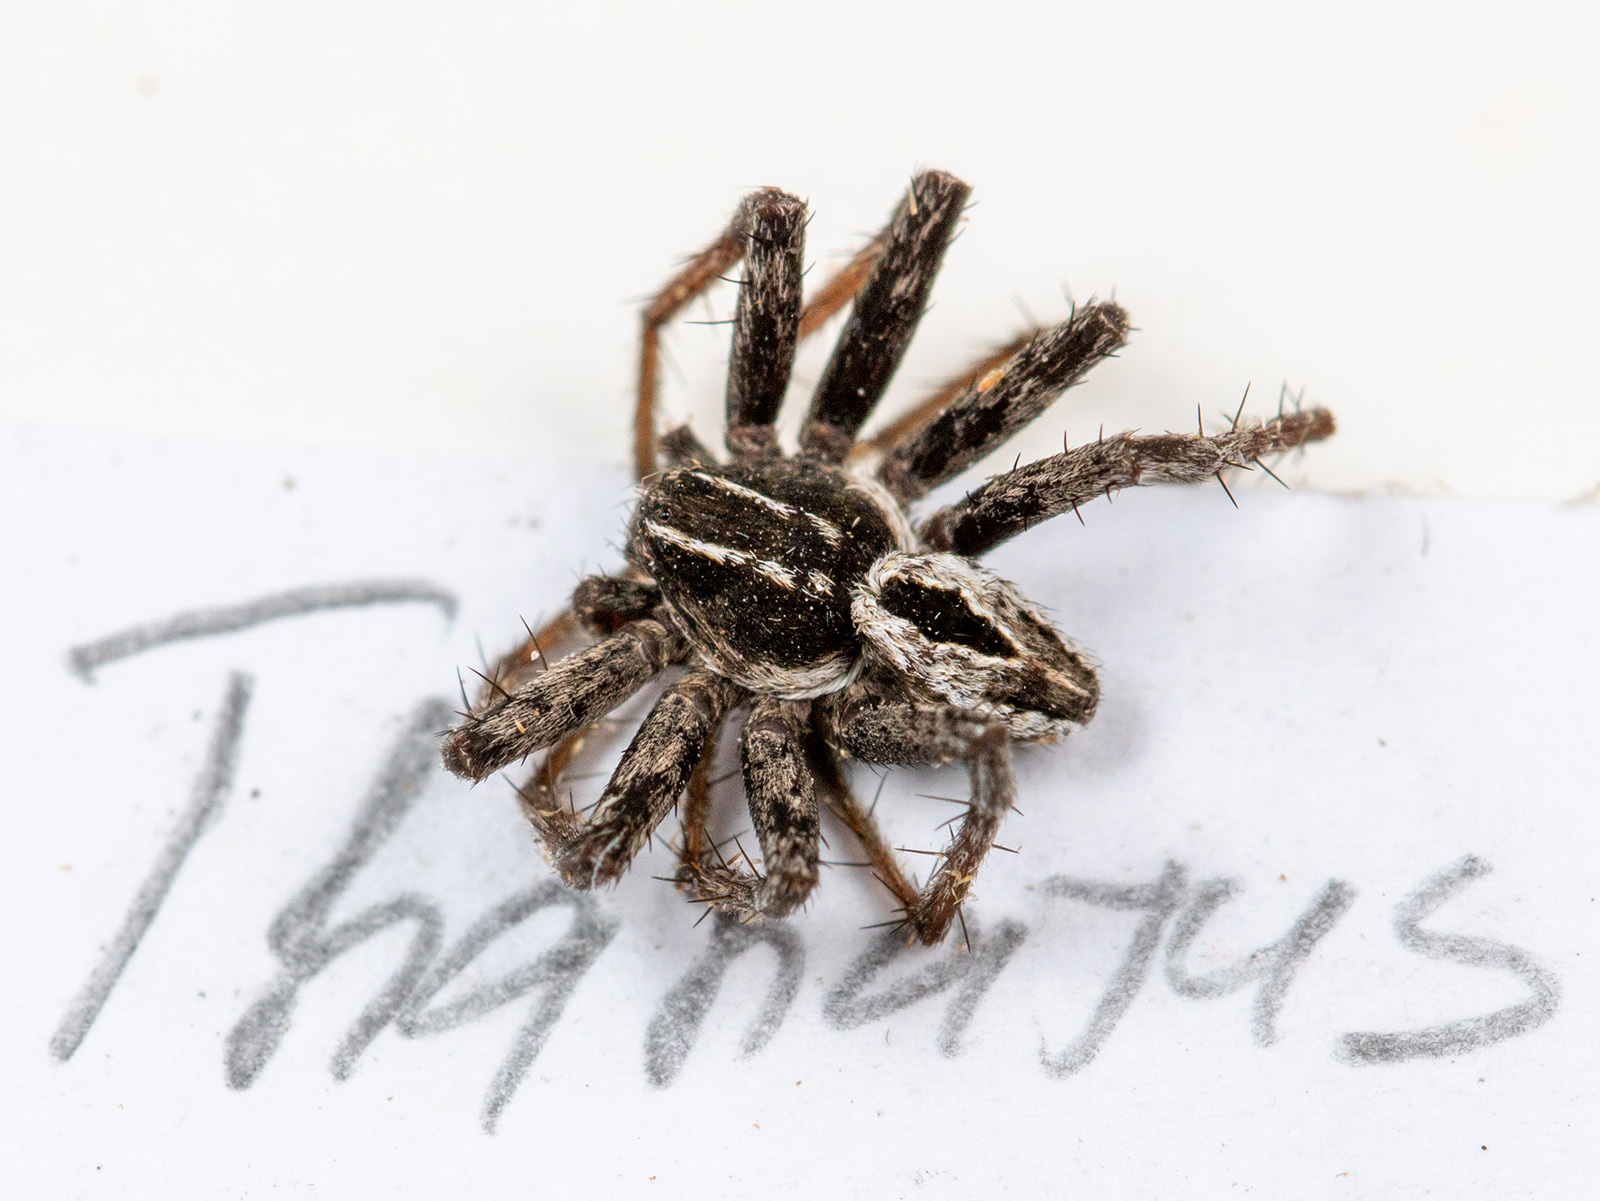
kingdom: Animalia
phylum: Arthropoda
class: Arachnida
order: Araneae
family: Philodromidae
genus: Thanatus
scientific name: Thanatus arenarius
